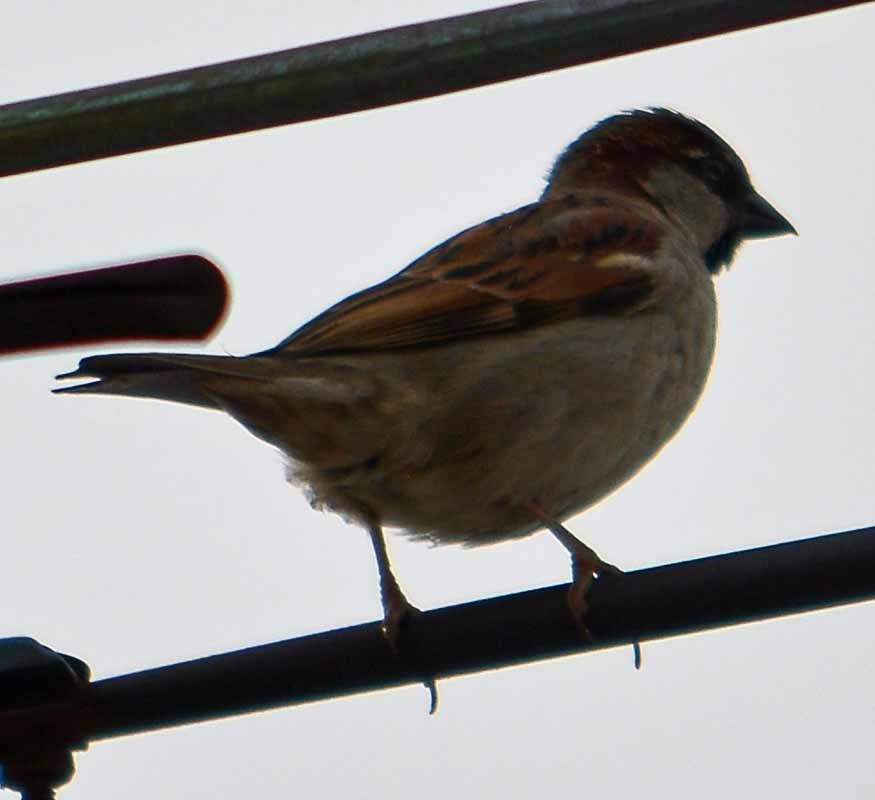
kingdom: Animalia
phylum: Chordata
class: Aves
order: Passeriformes
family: Passeridae
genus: Passer
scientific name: Passer domesticus
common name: House sparrow
